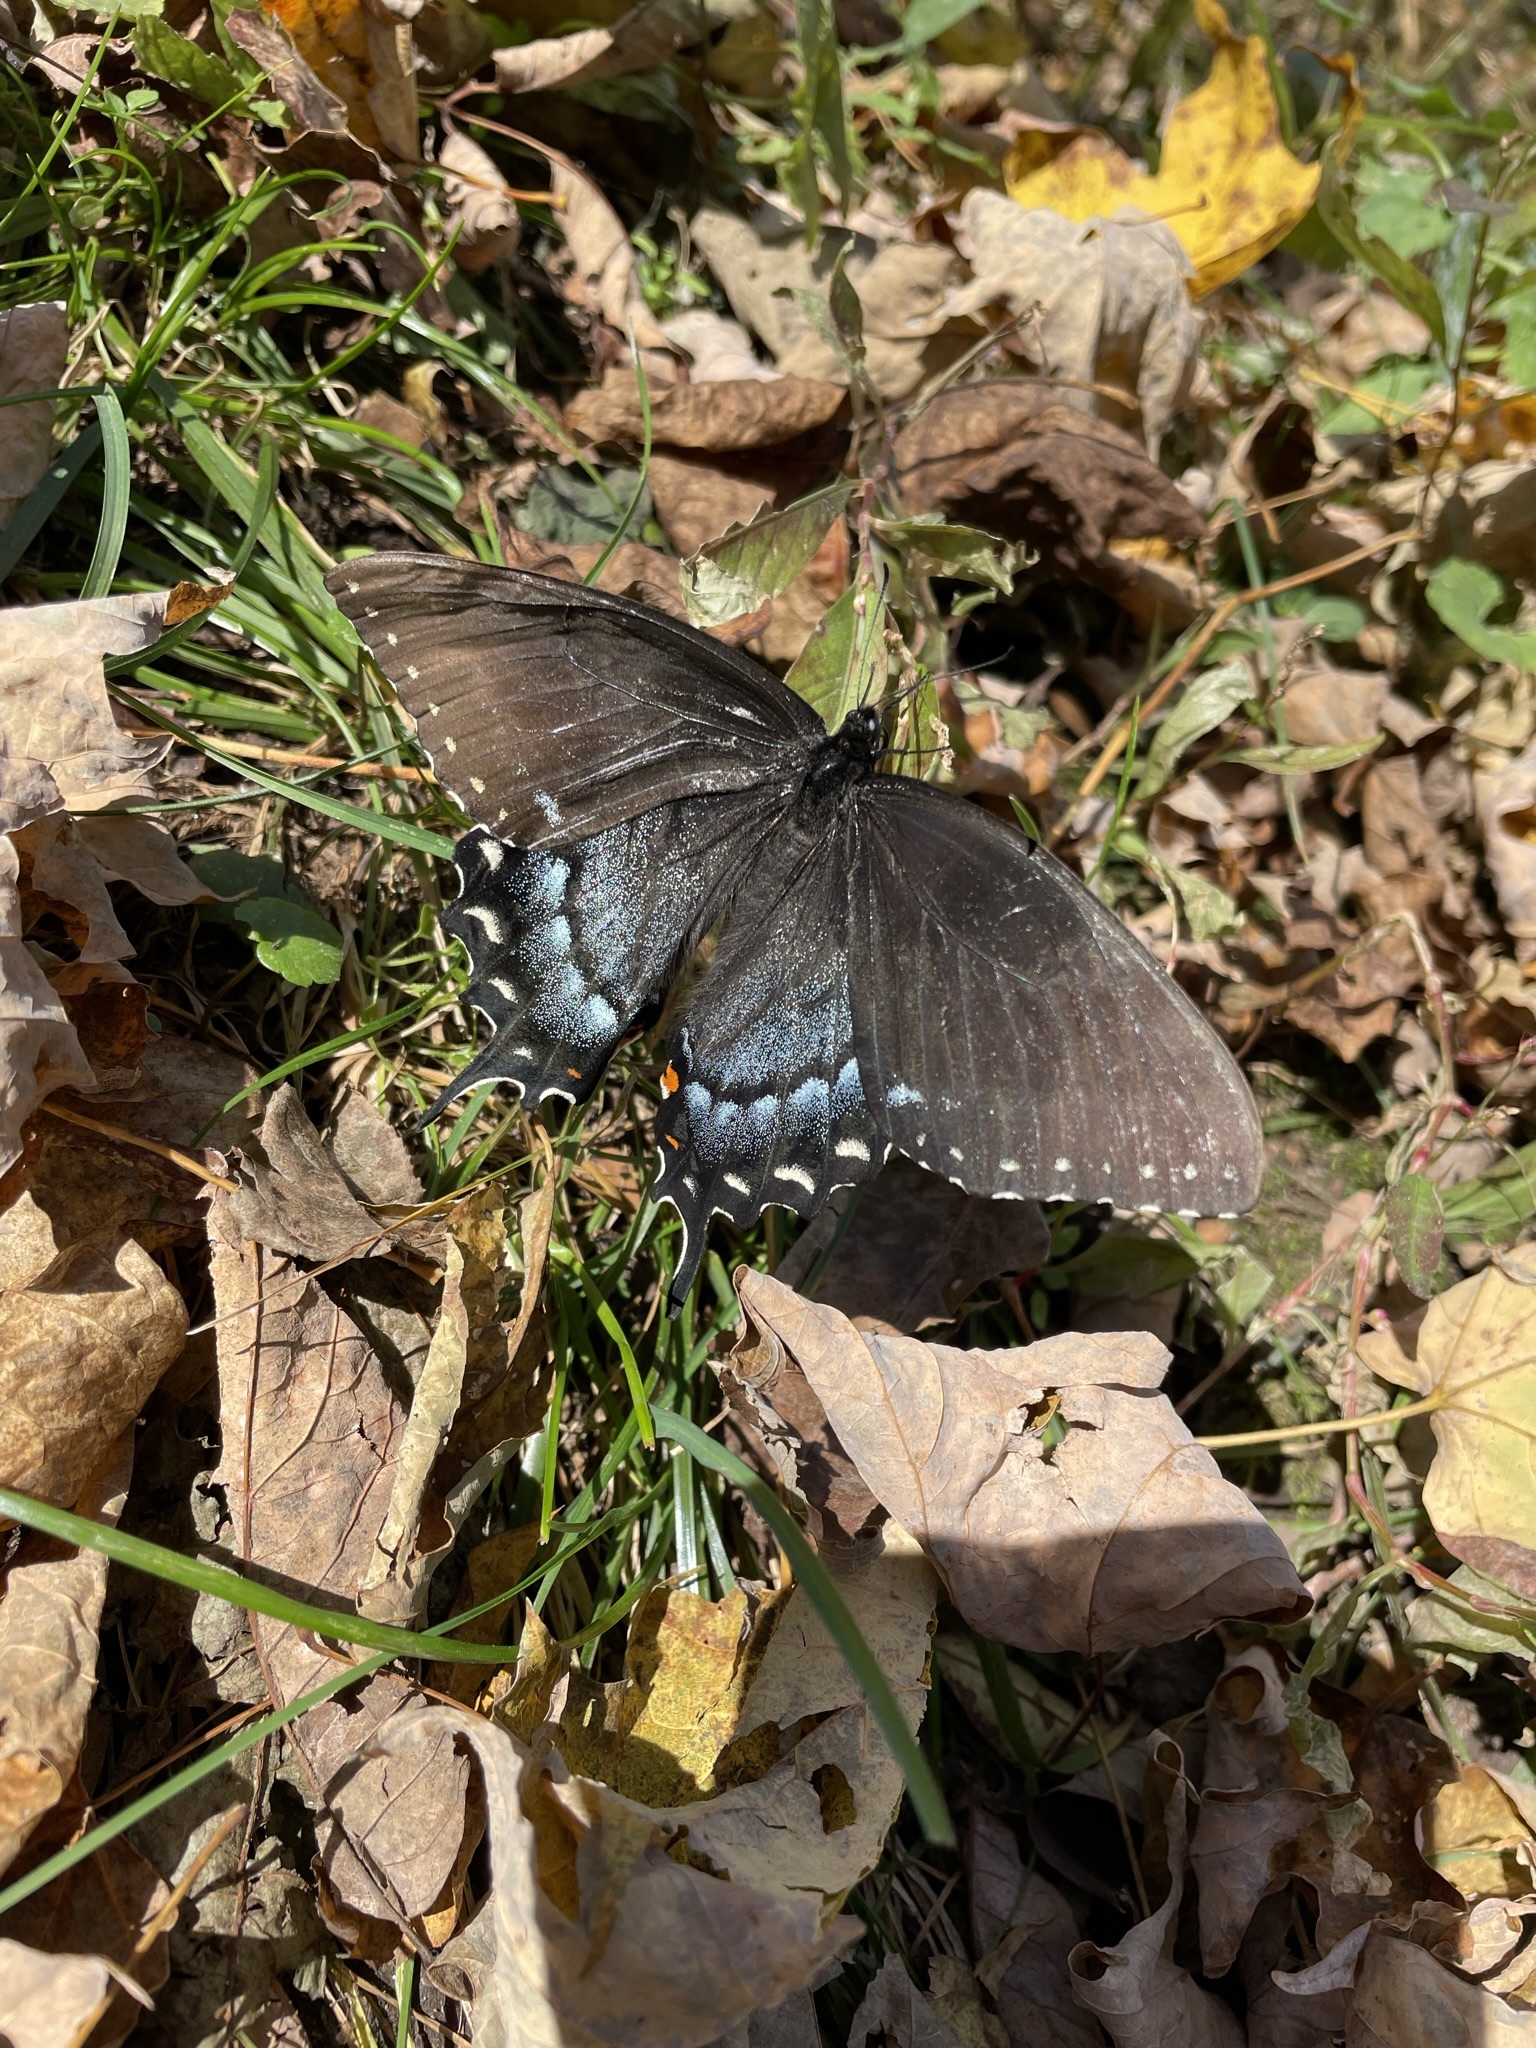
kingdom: Animalia
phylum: Arthropoda
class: Insecta
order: Lepidoptera
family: Papilionidae
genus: Papilio
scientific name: Papilio glaucus
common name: Tiger swallowtail
